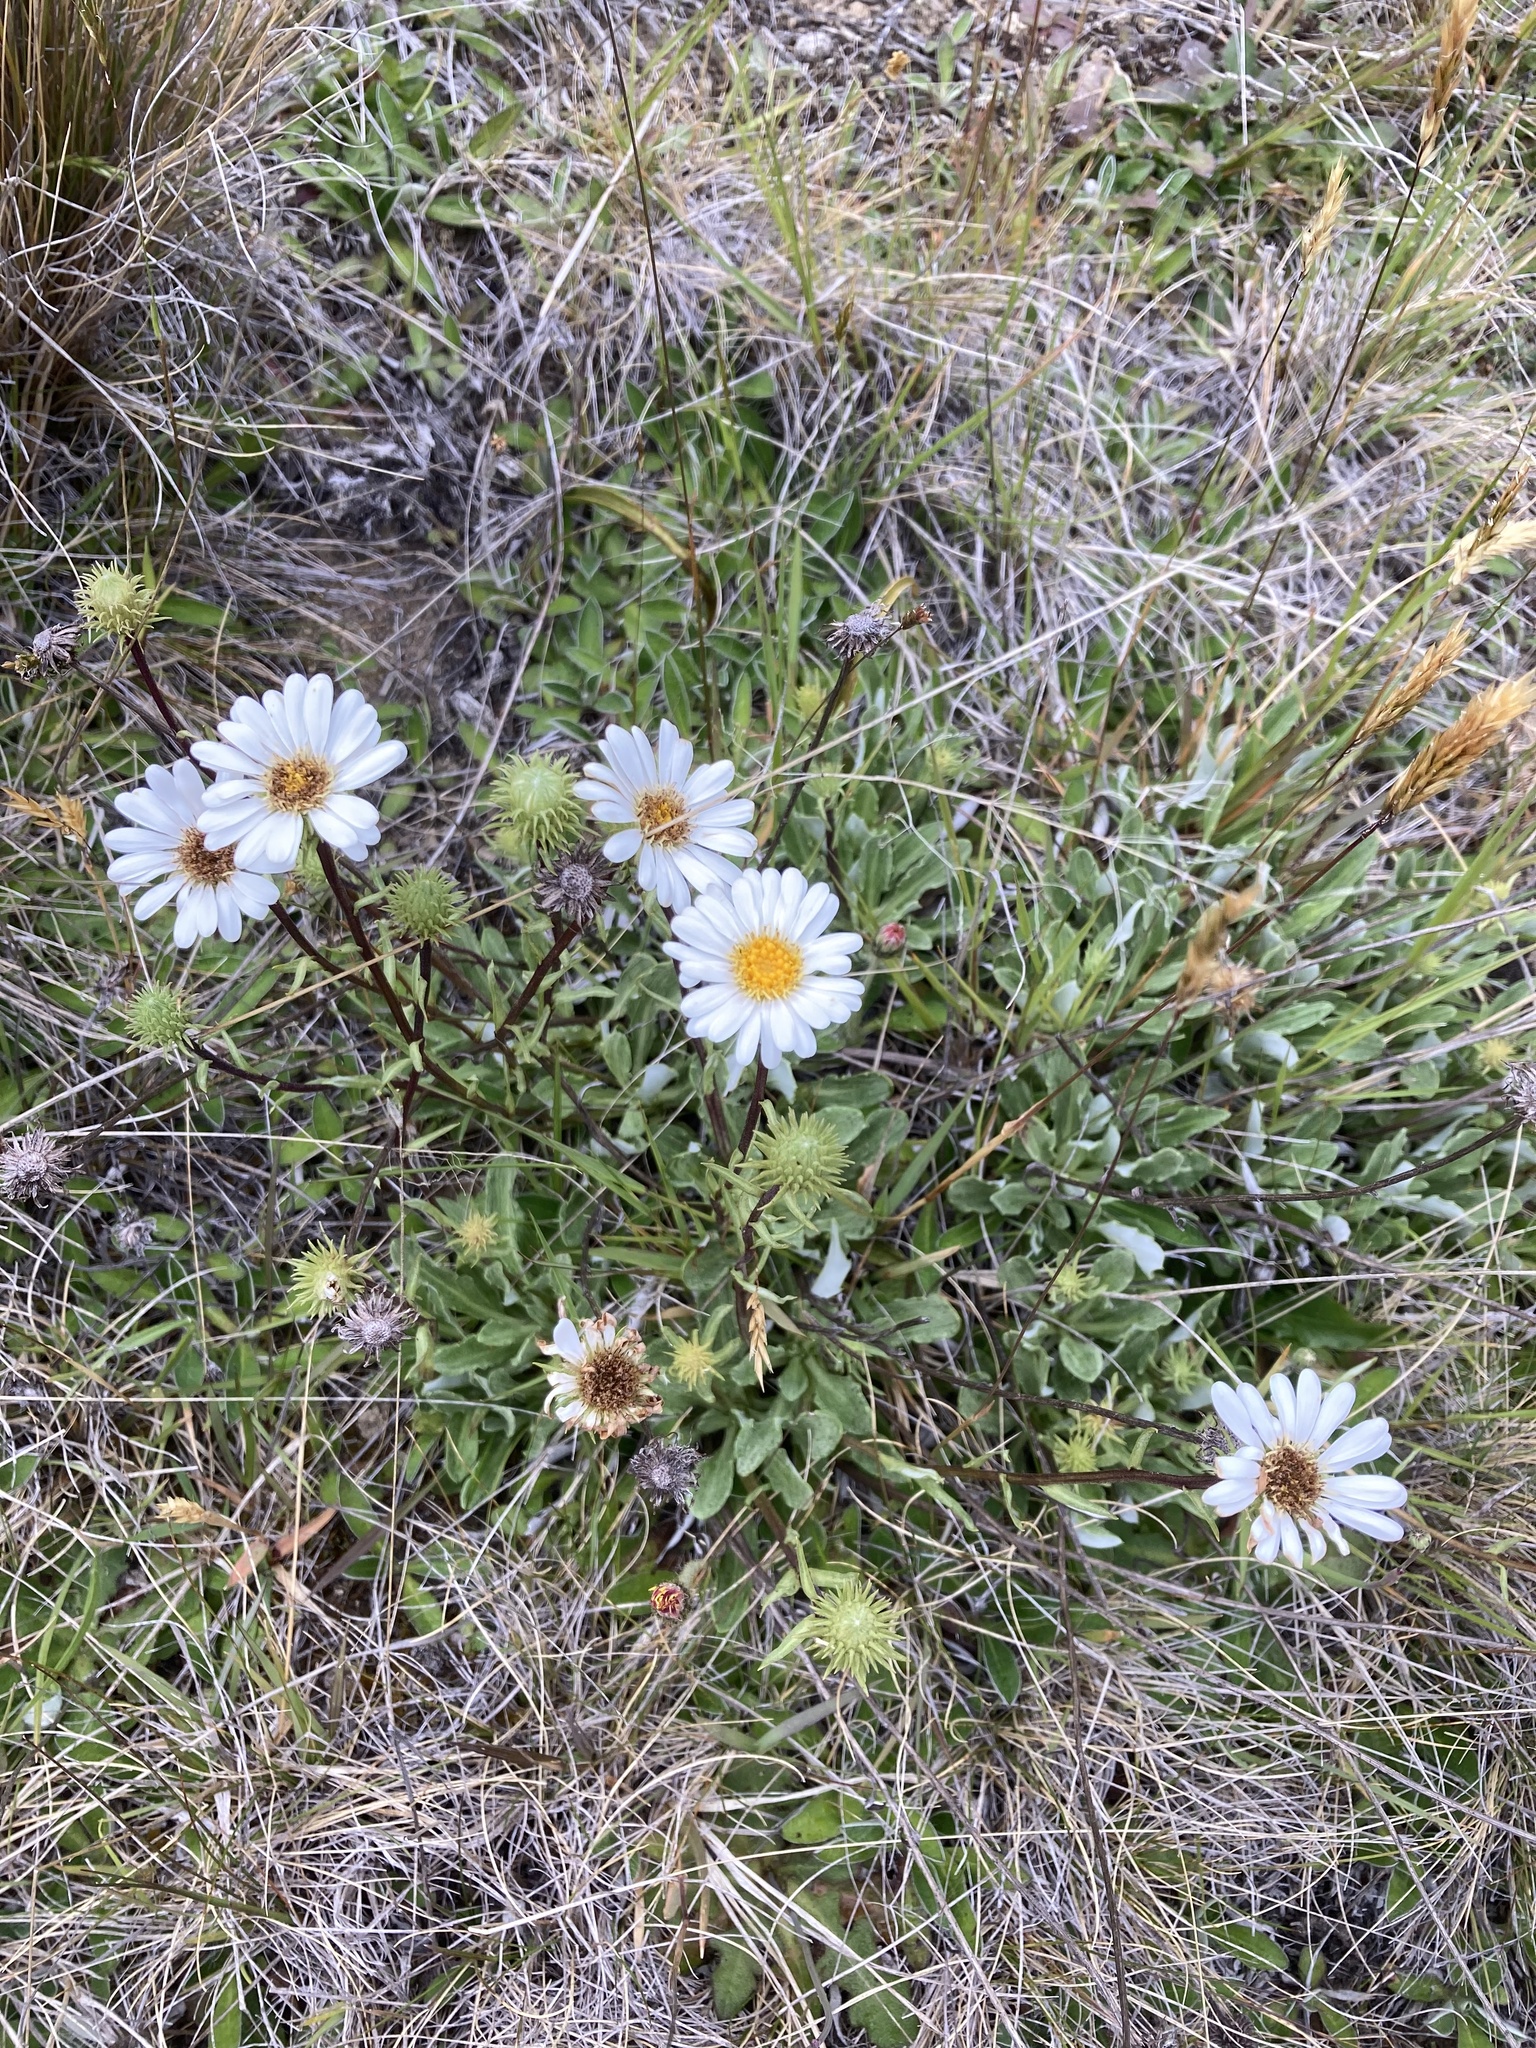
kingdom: Plantae
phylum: Tracheophyta
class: Magnoliopsida
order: Asterales
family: Asteraceae
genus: Celmisia
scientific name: Celmisia durietzii
